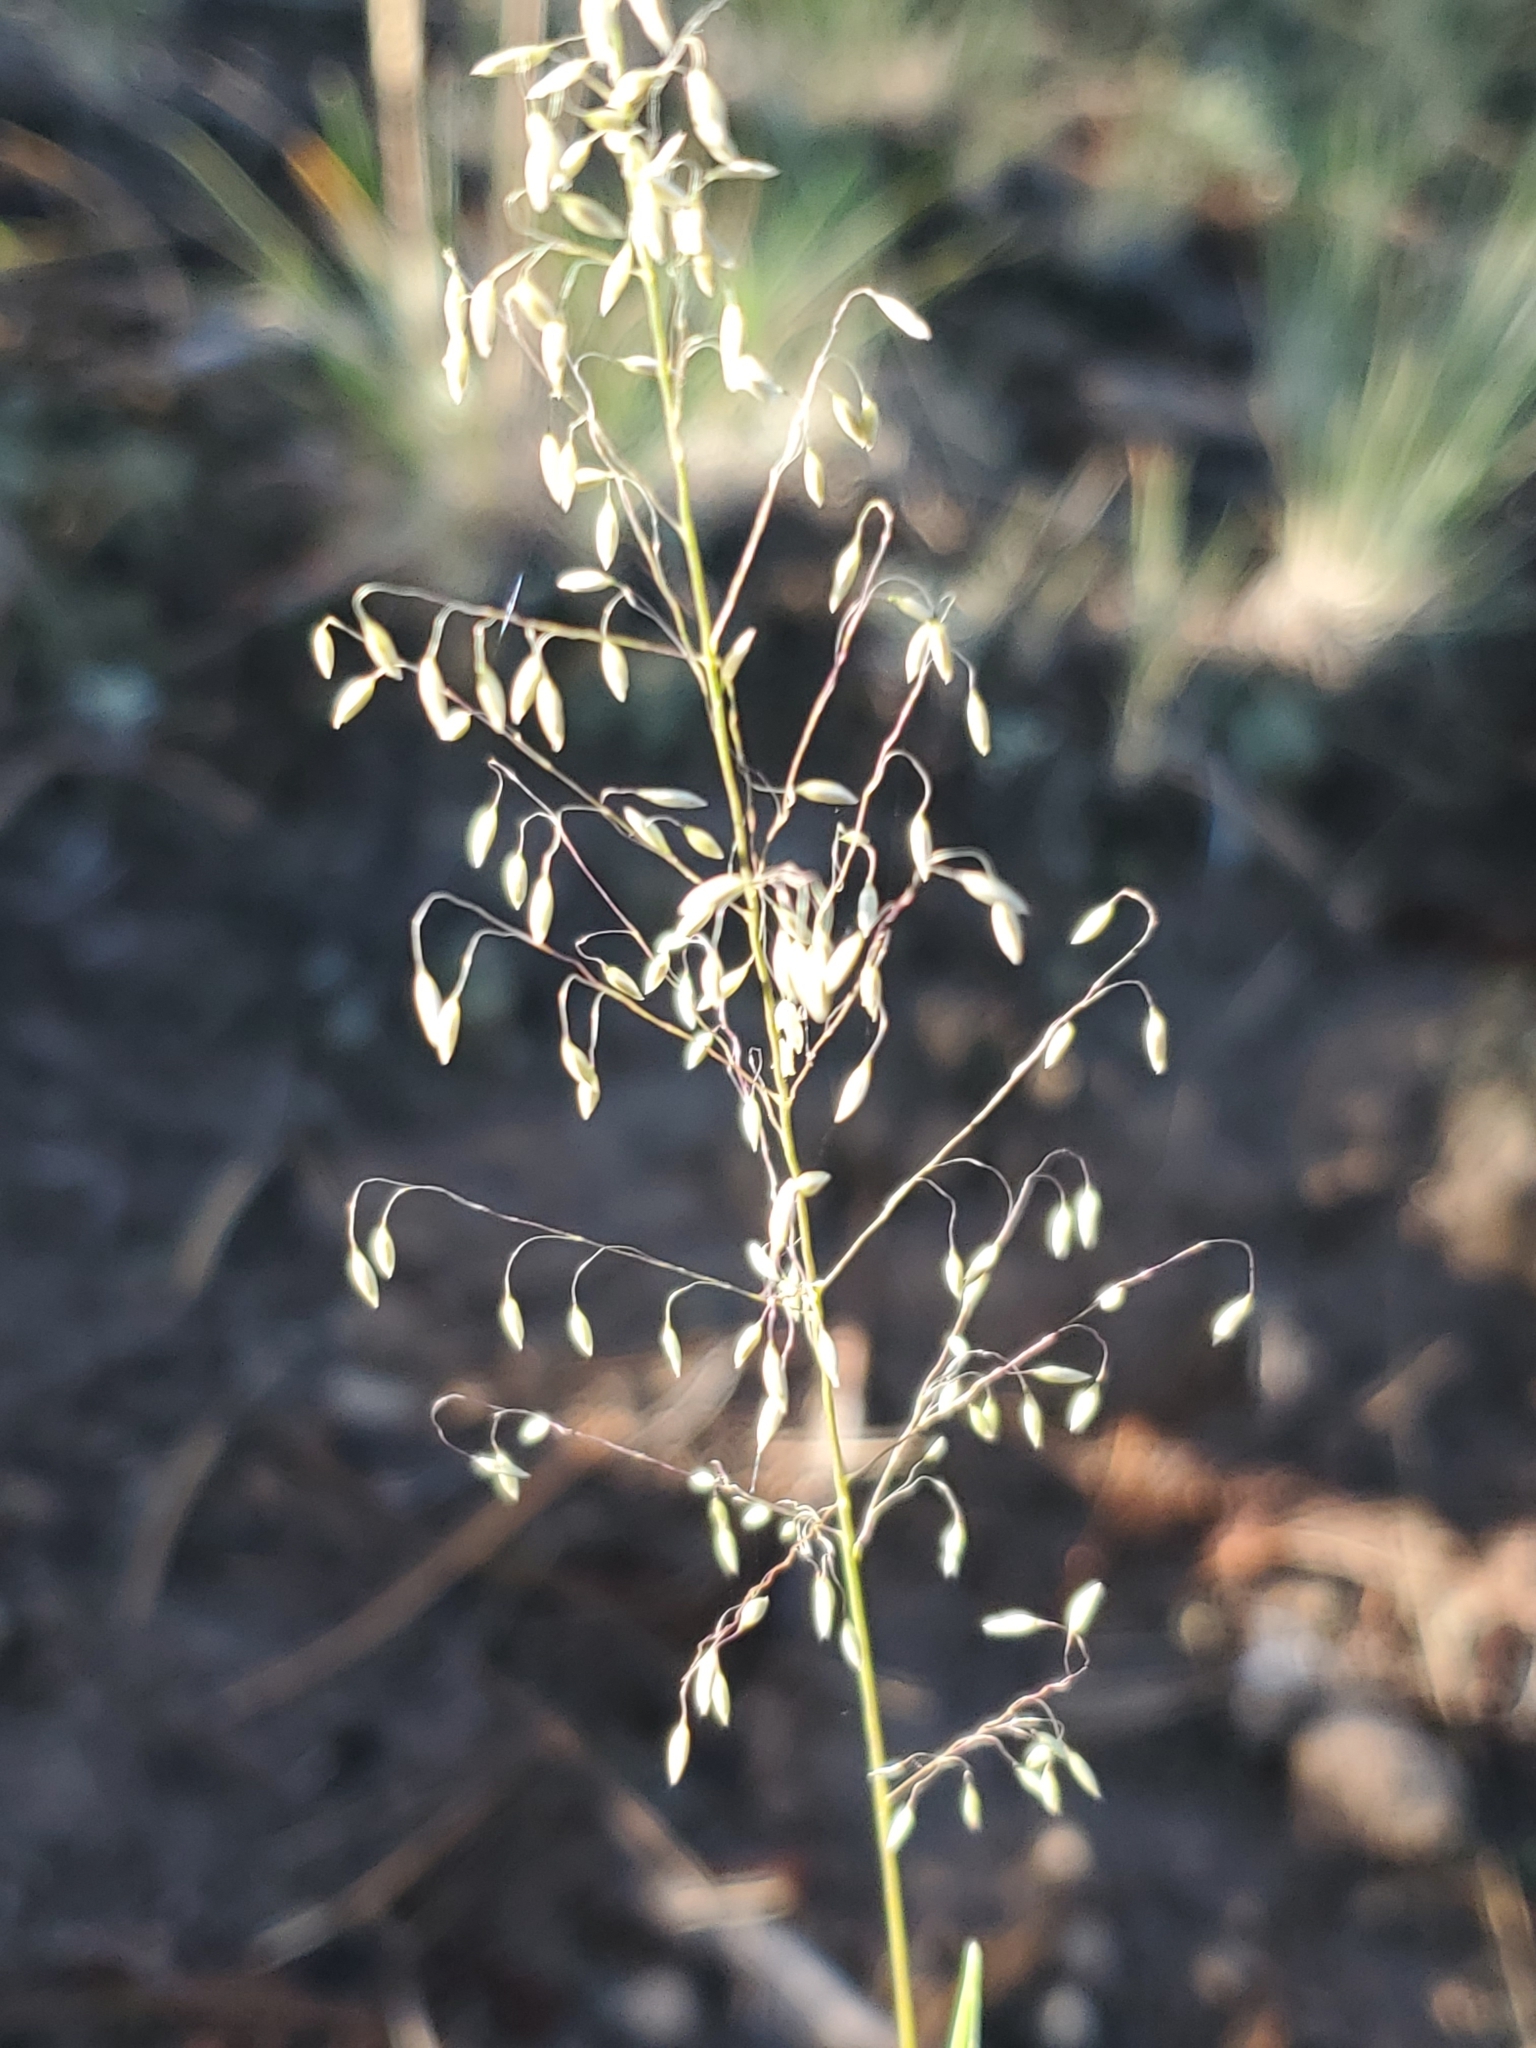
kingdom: Plantae
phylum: Tracheophyta
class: Liliopsida
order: Poales
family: Poaceae
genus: Muhlenbergia
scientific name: Muhlenbergia tricholepis
